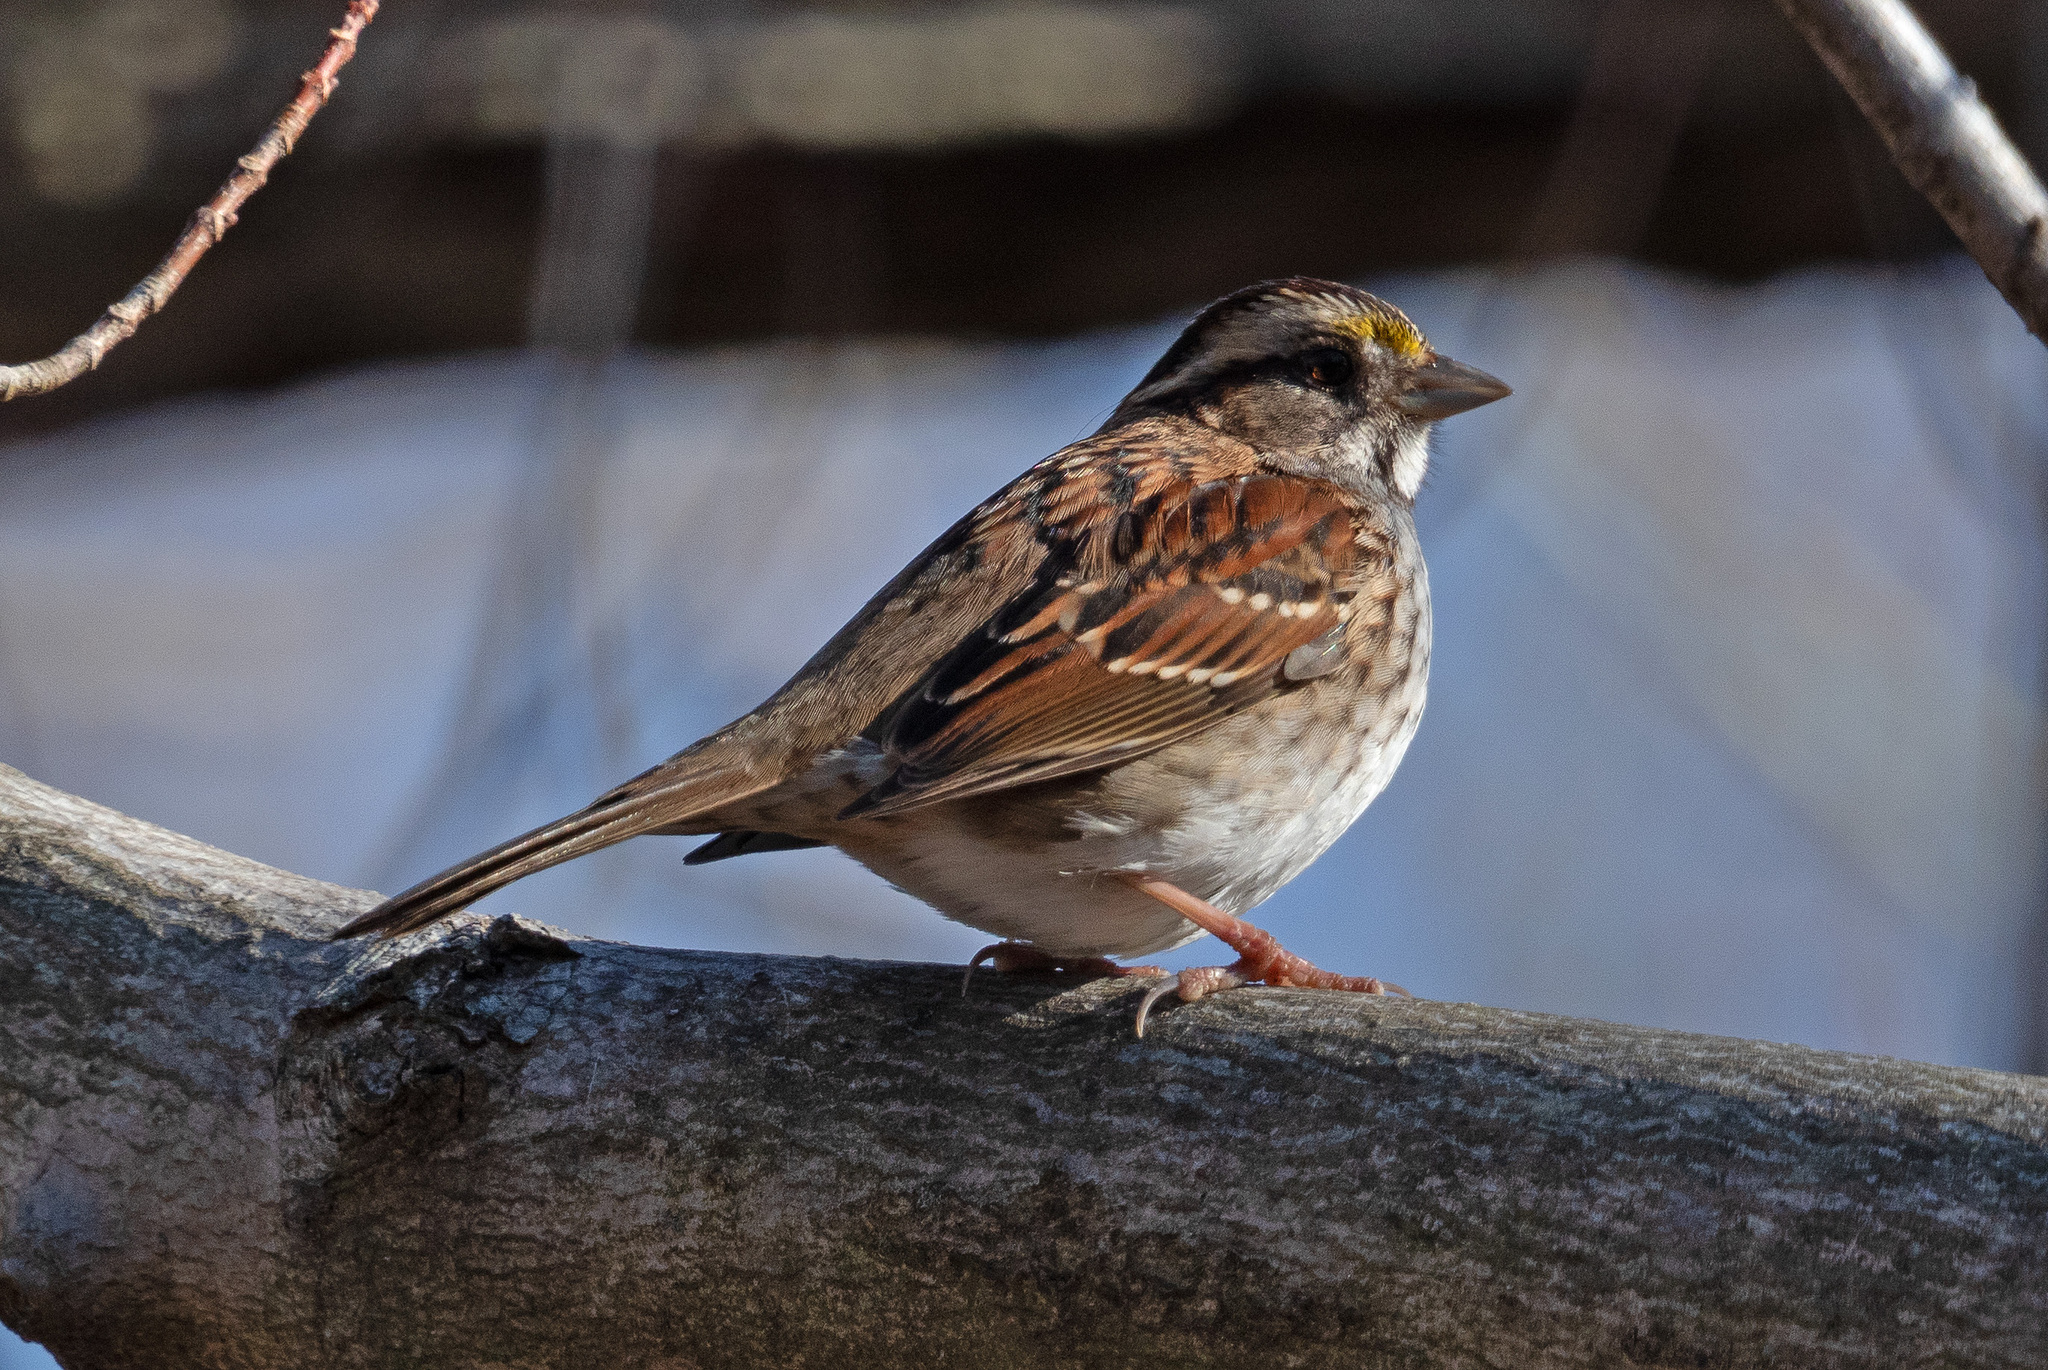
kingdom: Animalia
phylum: Chordata
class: Aves
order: Passeriformes
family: Passerellidae
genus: Zonotrichia
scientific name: Zonotrichia albicollis
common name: White-throated sparrow
